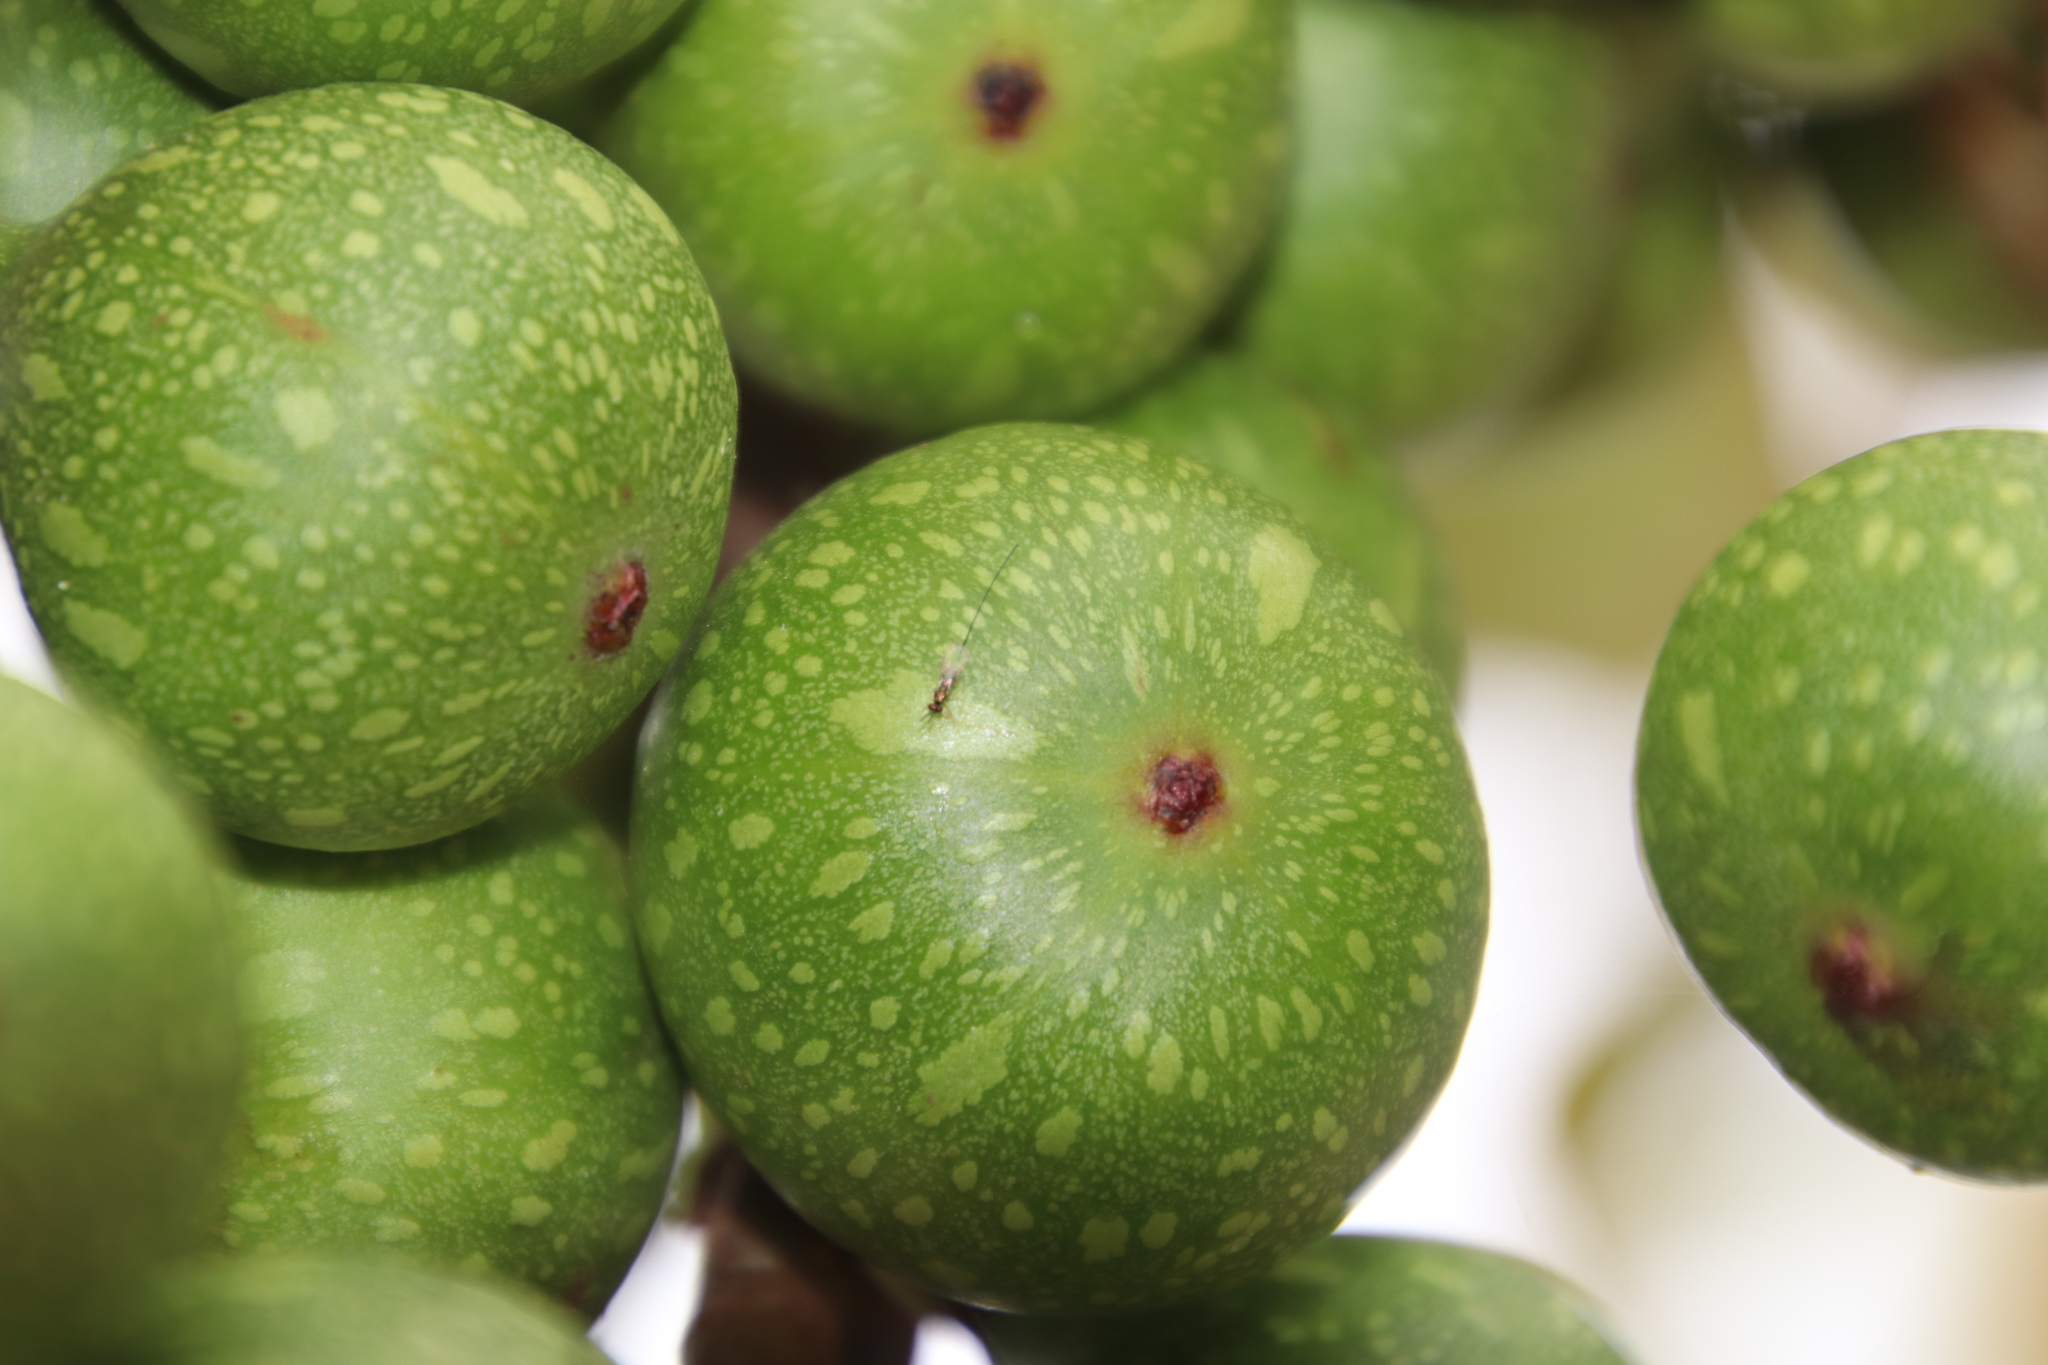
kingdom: Plantae
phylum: Tracheophyta
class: Magnoliopsida
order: Rosales
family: Moraceae
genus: Ficus
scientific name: Ficus sur
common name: Cape fig
